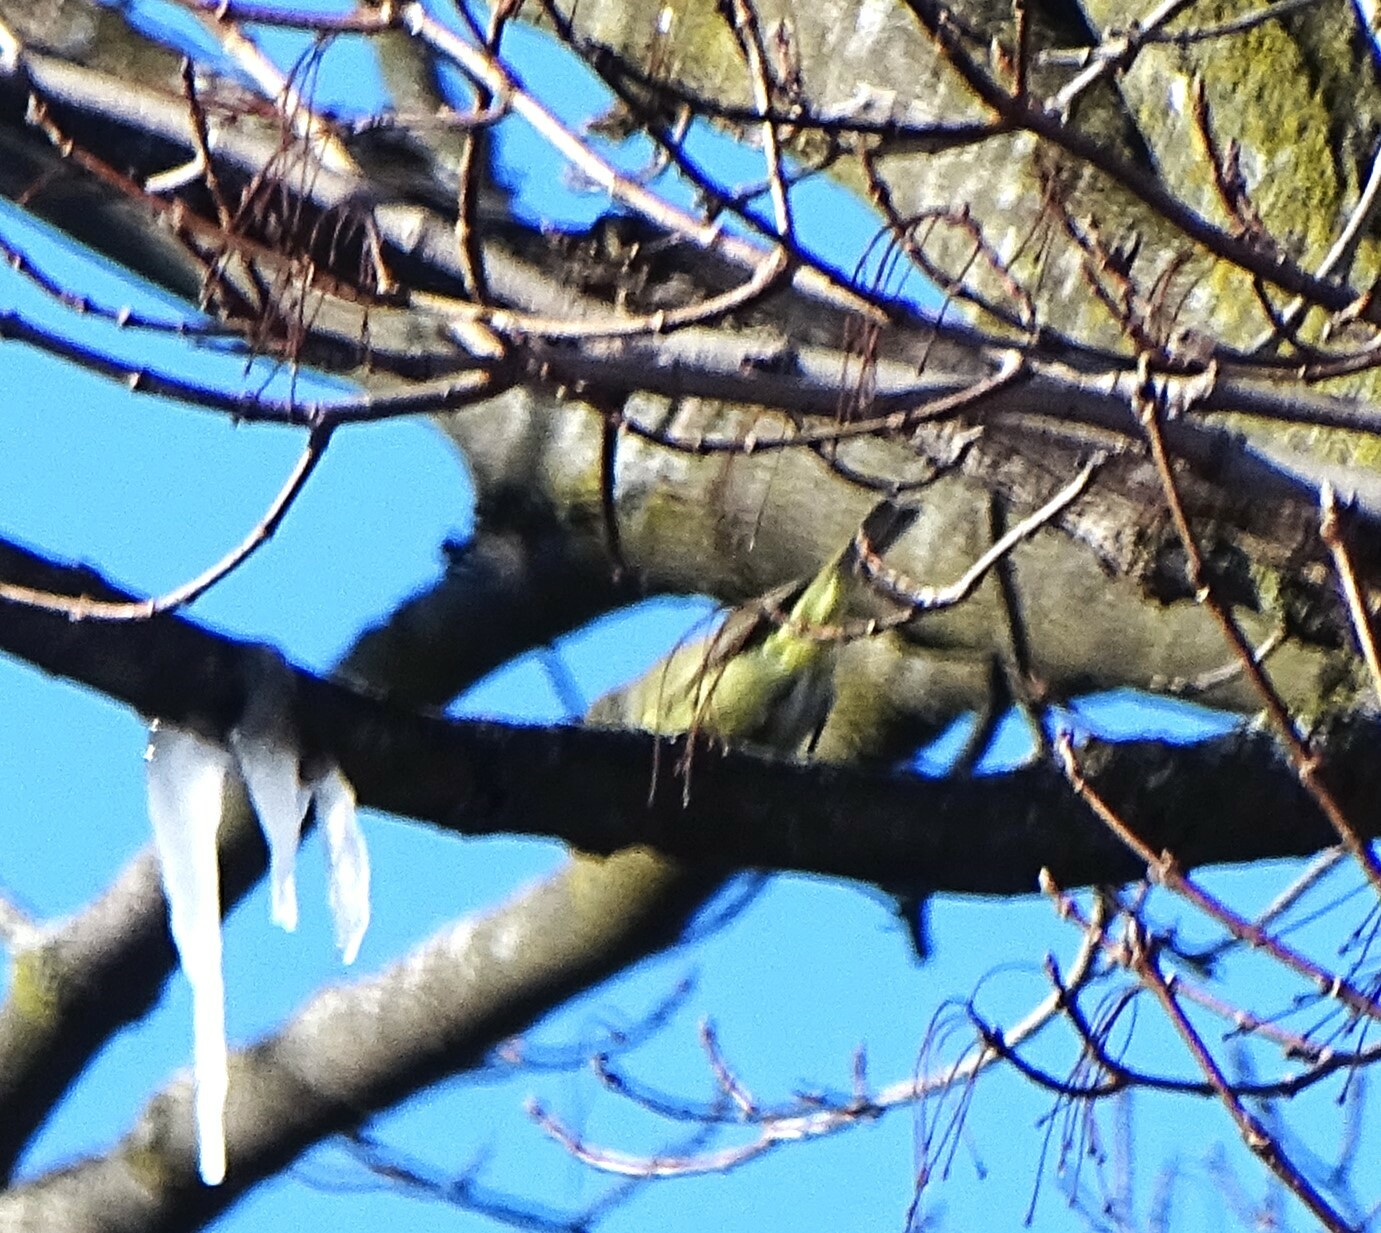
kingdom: Animalia
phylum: Chordata
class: Aves
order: Passeriformes
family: Parulidae
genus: Leiothlypis
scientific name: Leiothlypis celata
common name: Orange-crowned warbler
